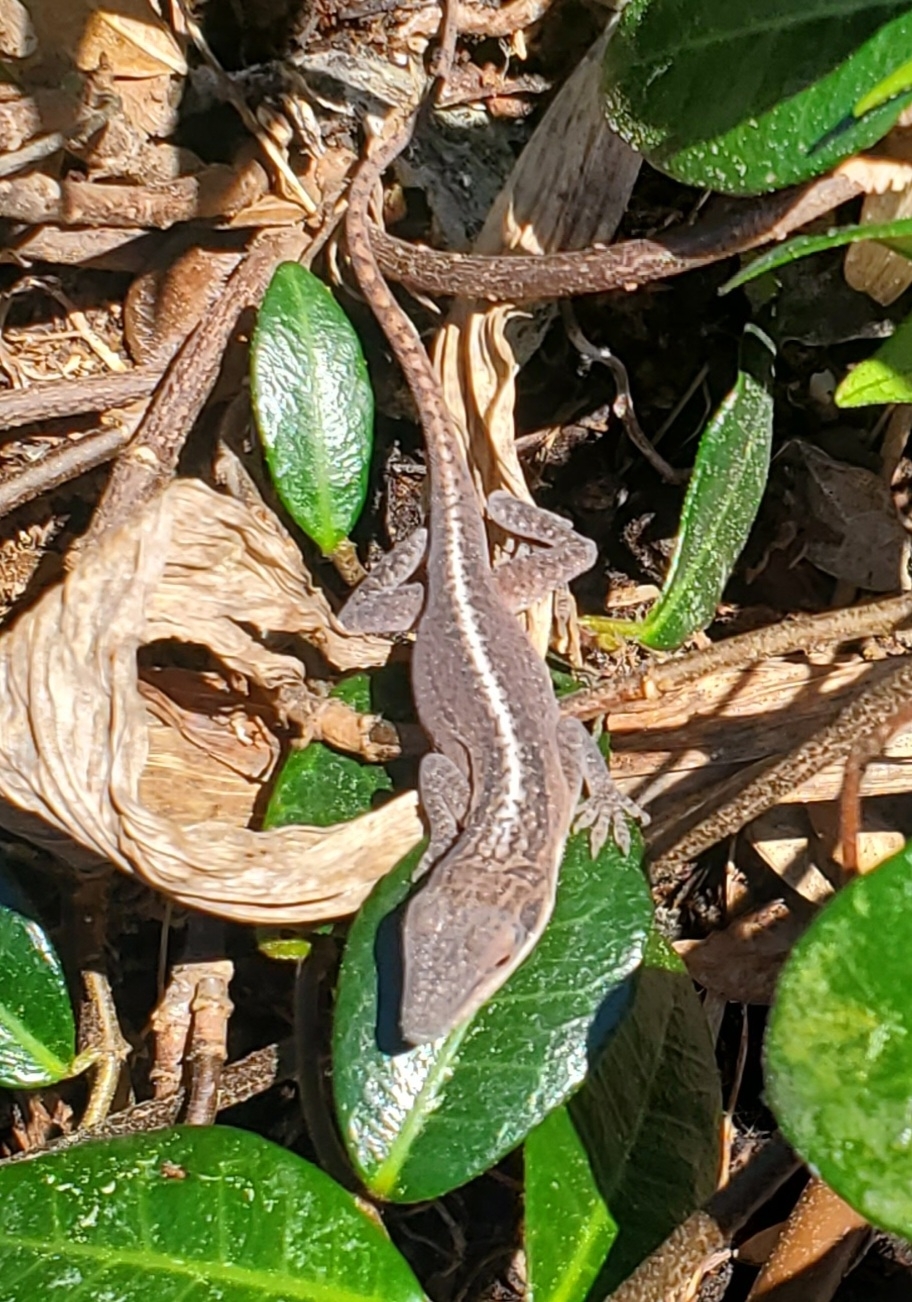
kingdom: Animalia
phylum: Chordata
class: Squamata
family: Dactyloidae
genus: Anolis
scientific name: Anolis carolinensis
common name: Green anole
